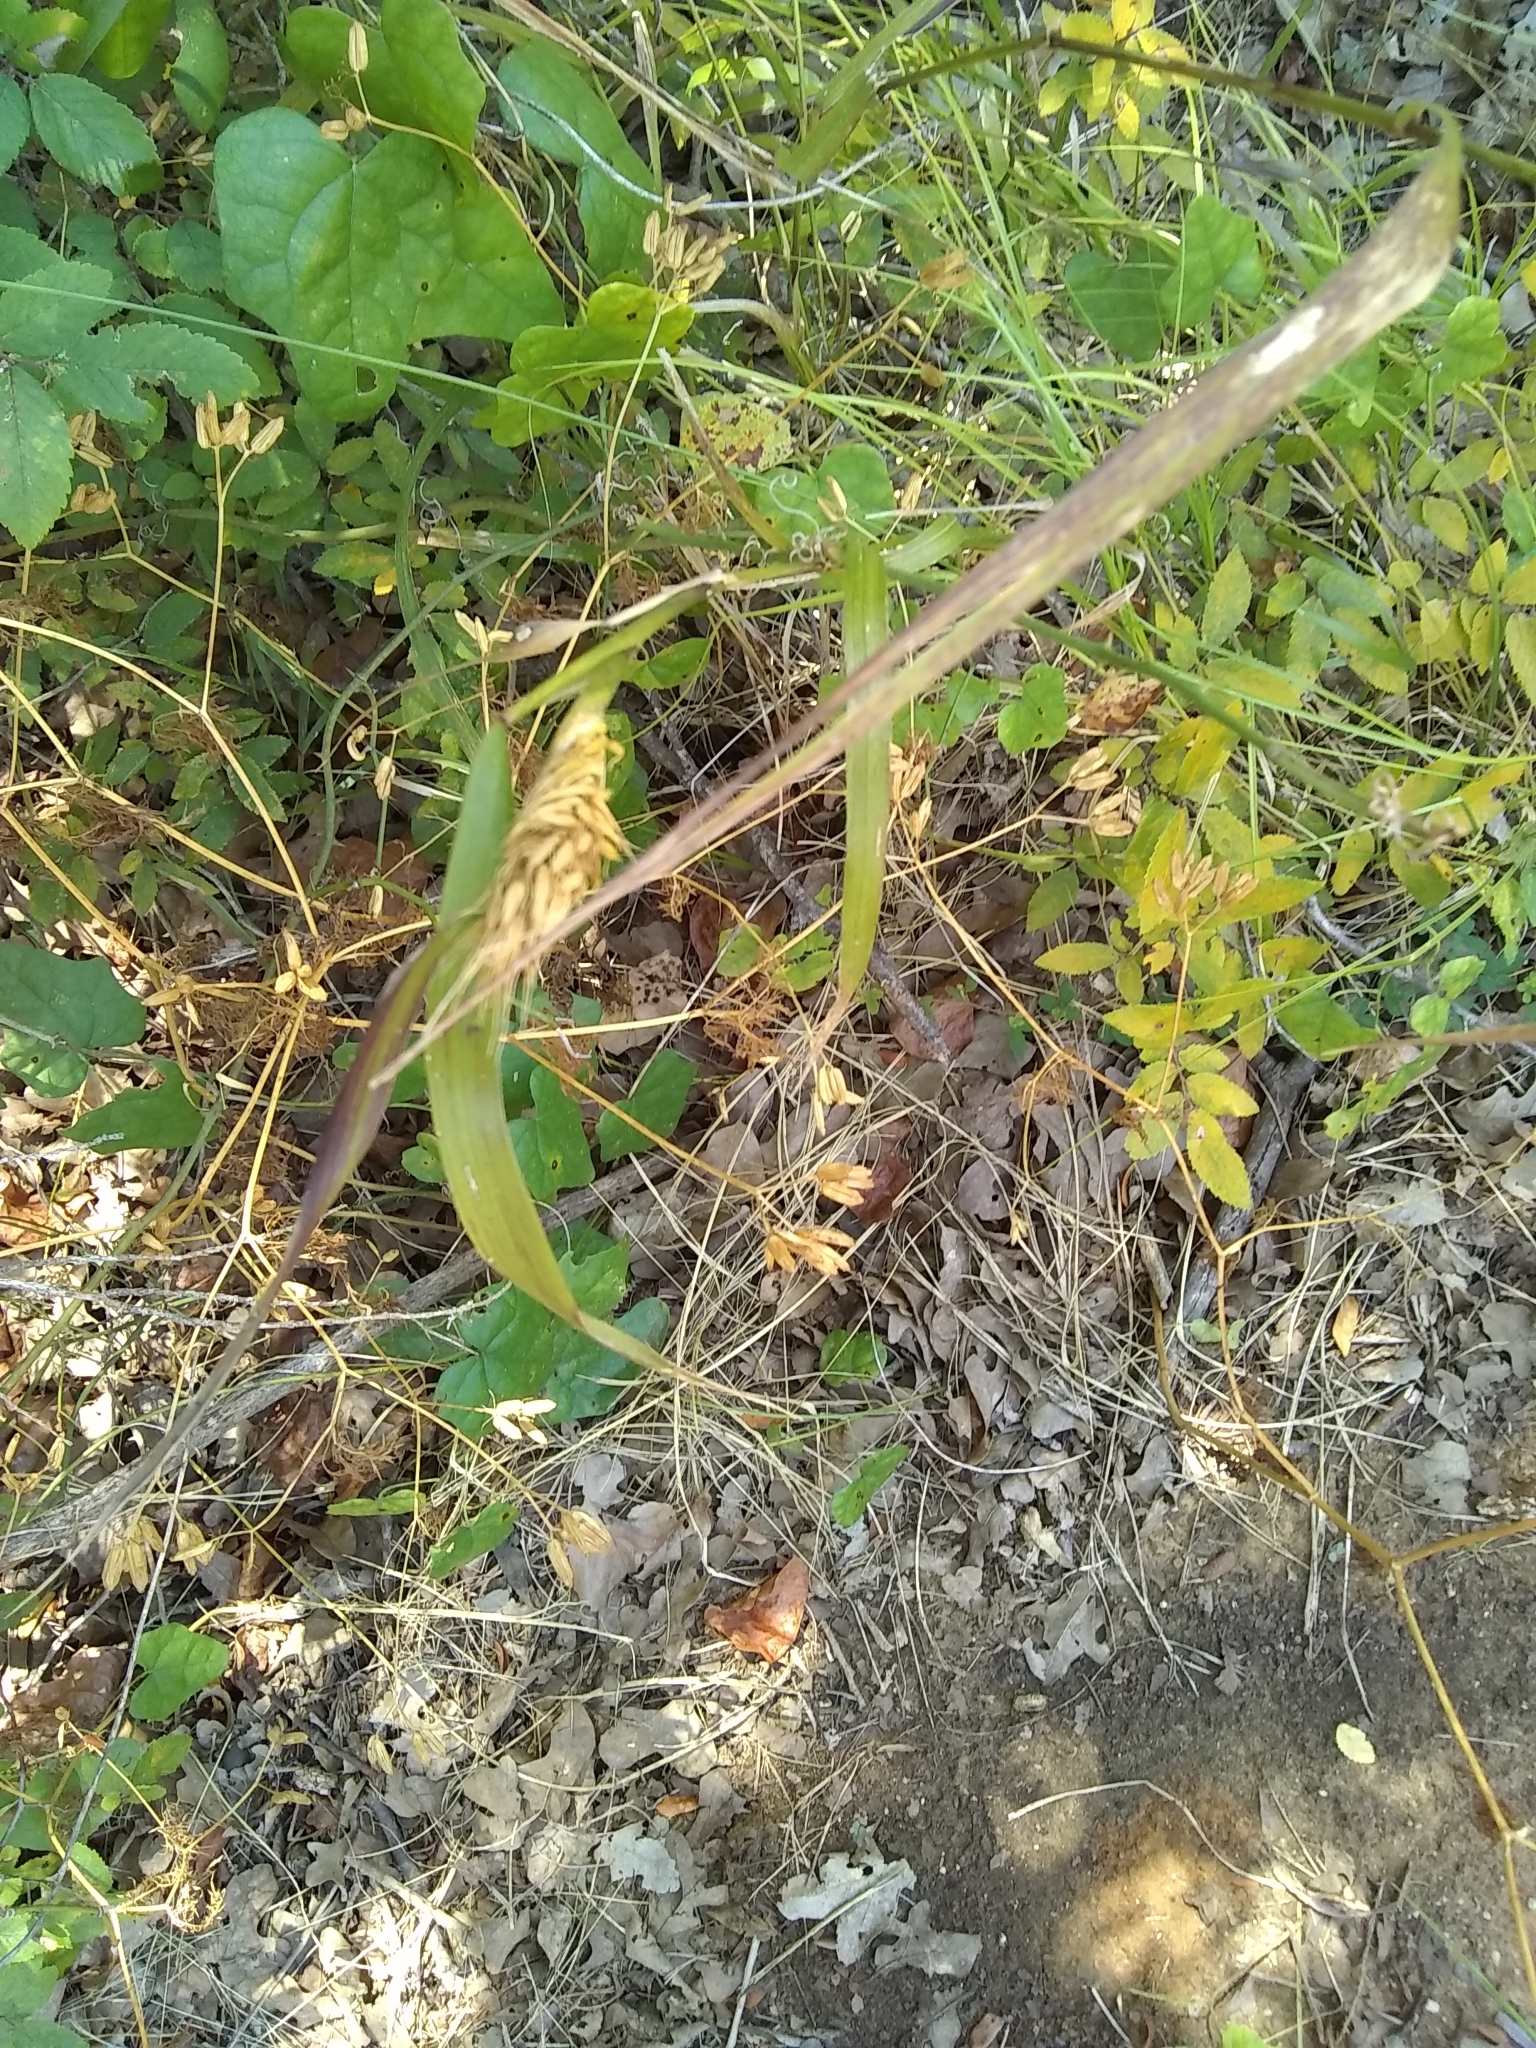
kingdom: Plantae
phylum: Tracheophyta
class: Liliopsida
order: Poales
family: Poaceae
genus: Elymus
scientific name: Elymus virginicus
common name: Common eastern wildrye
